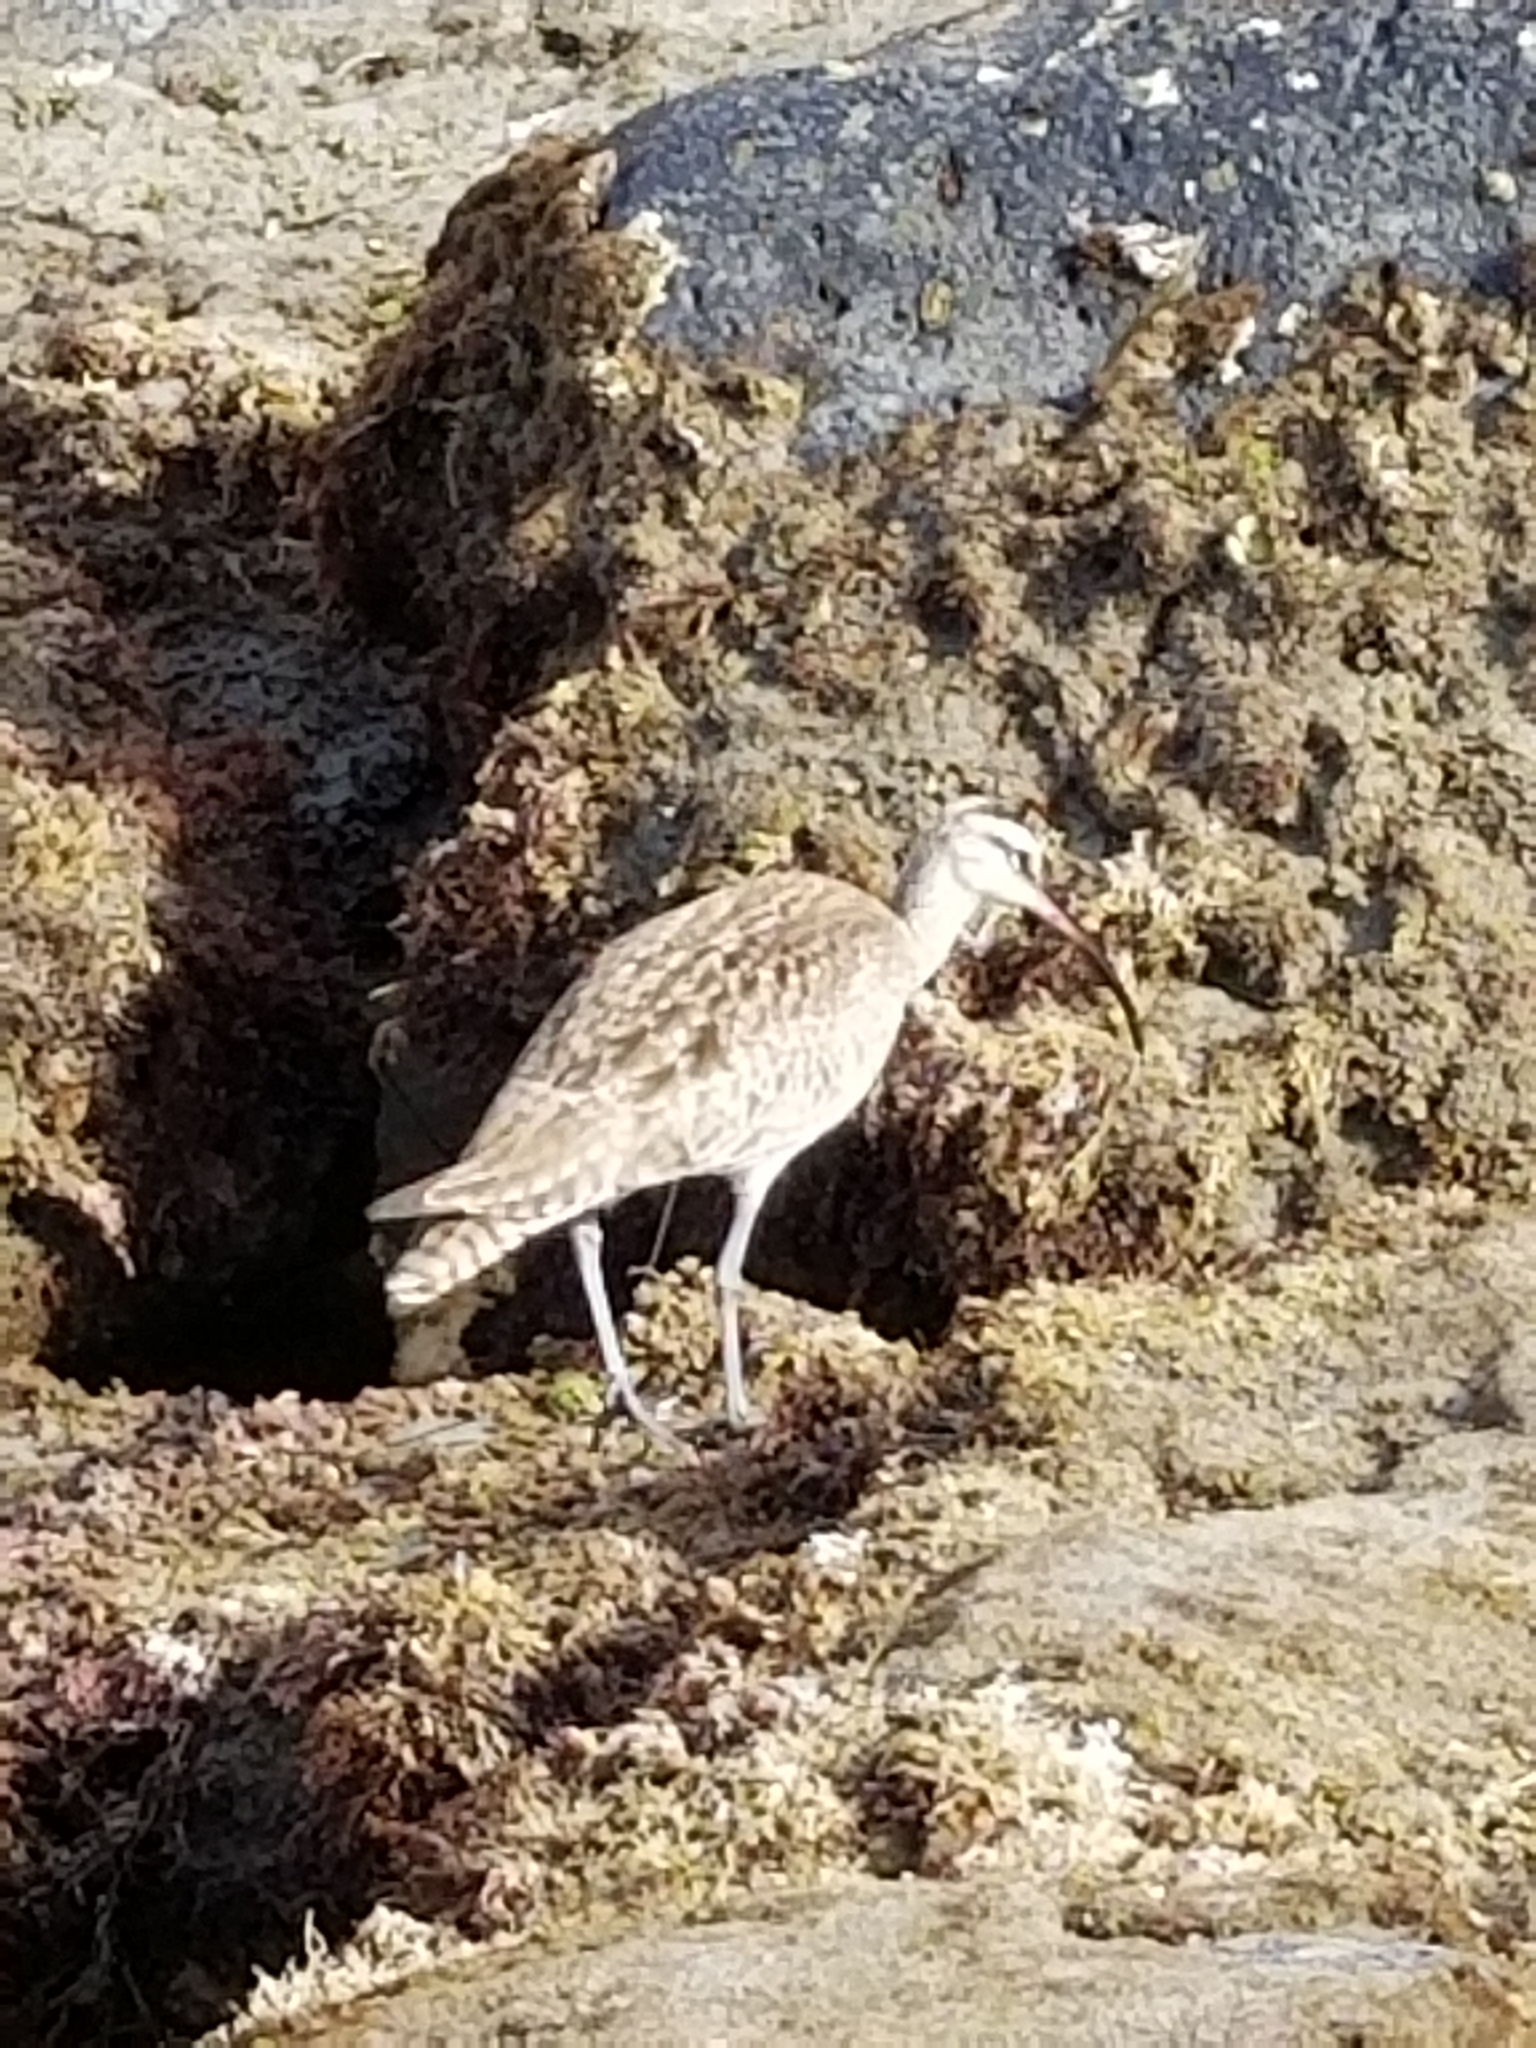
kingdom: Animalia
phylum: Chordata
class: Aves
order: Charadriiformes
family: Scolopacidae
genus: Numenius
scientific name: Numenius phaeopus
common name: Whimbrel
